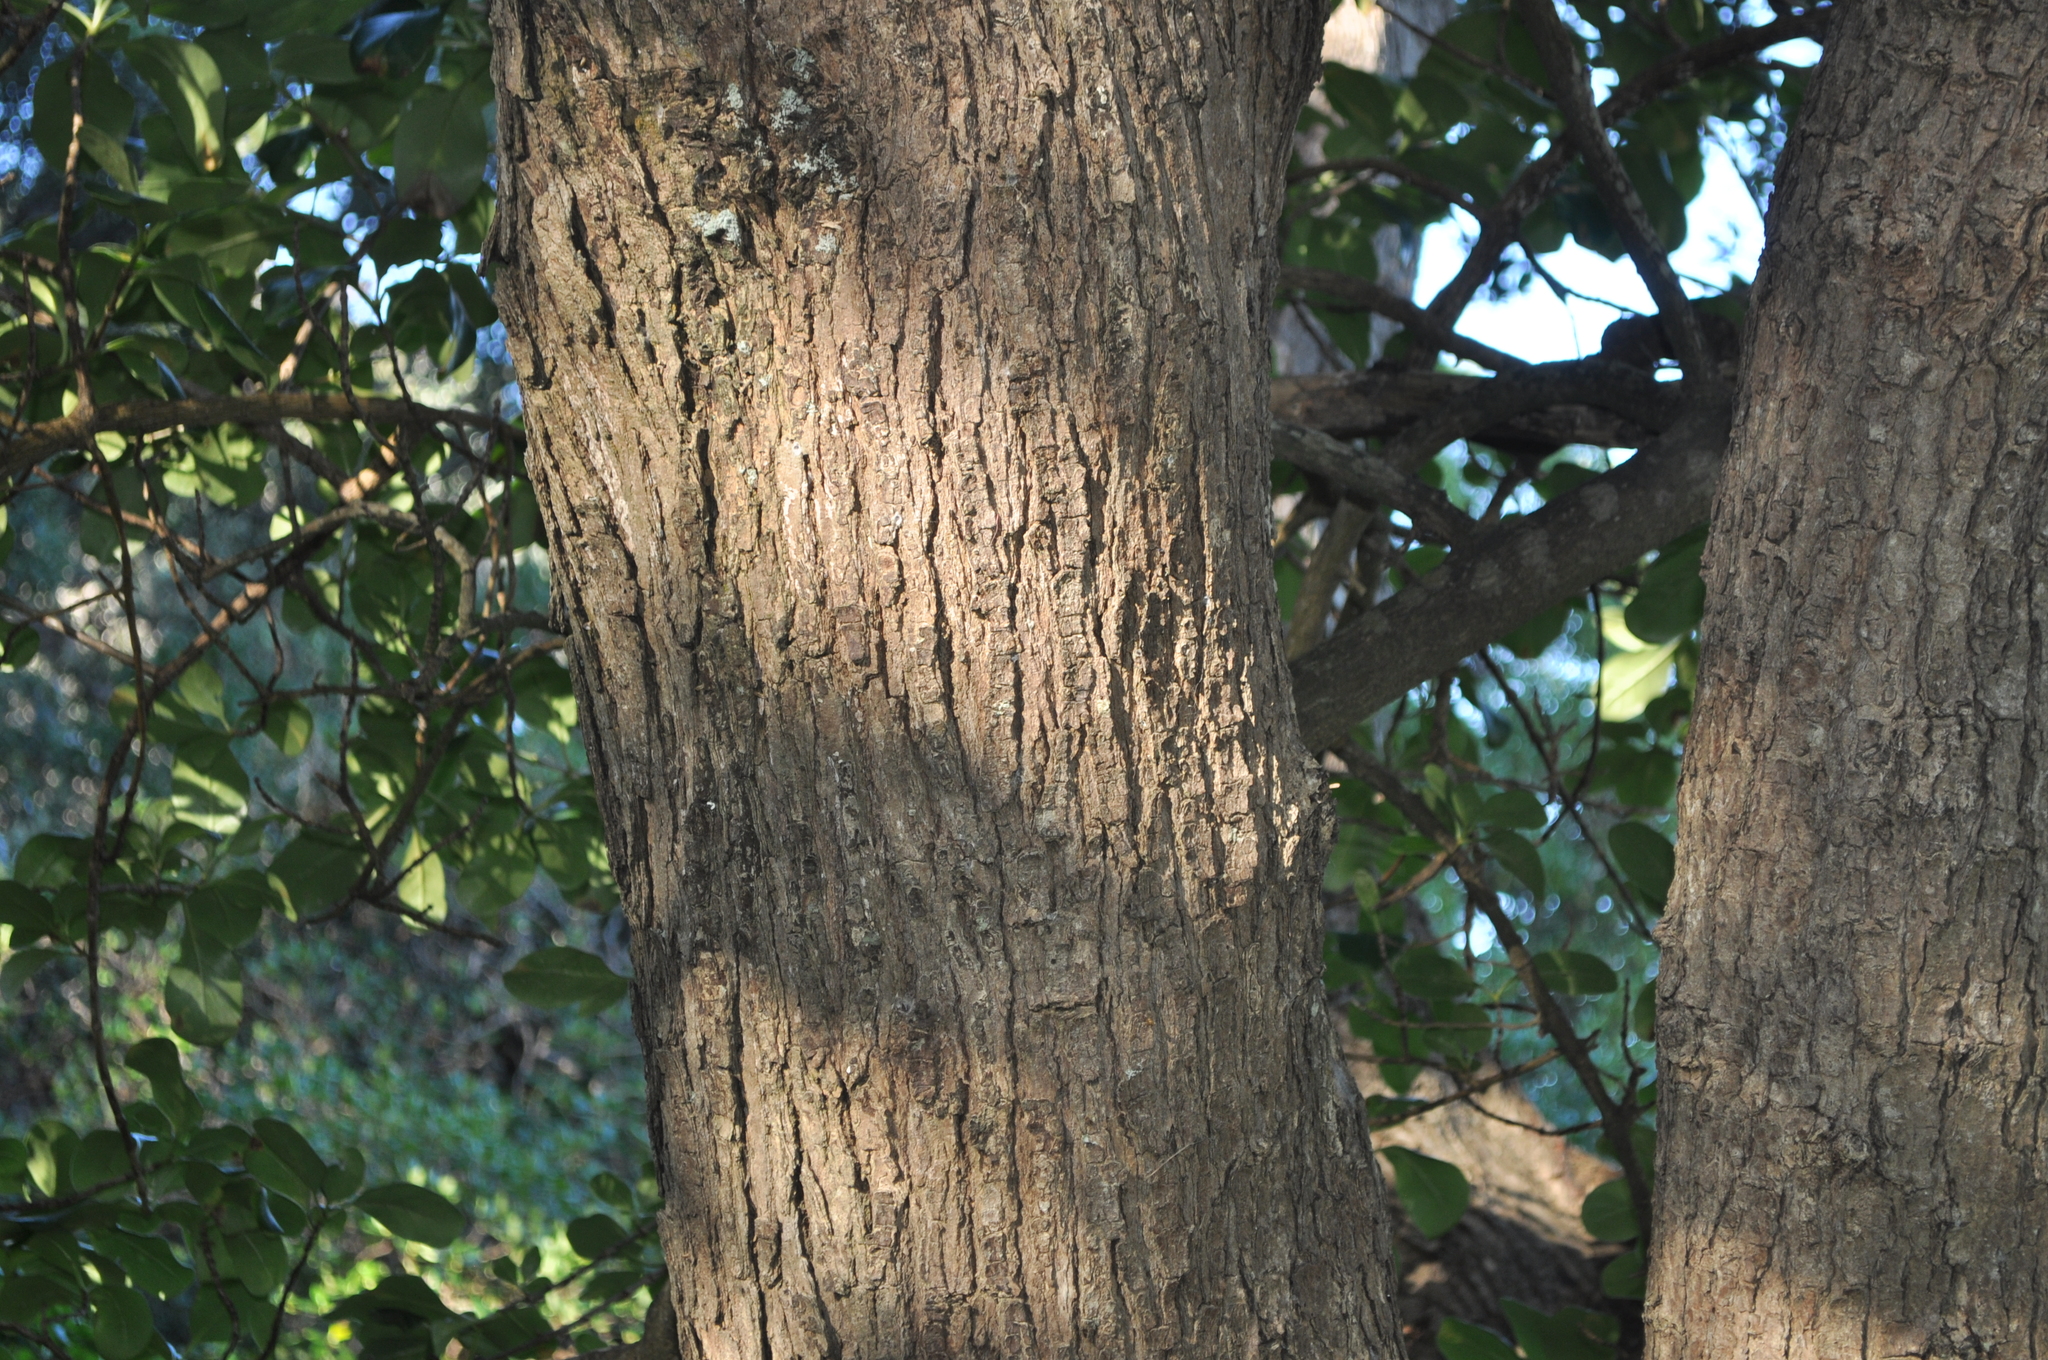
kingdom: Plantae
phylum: Tracheophyta
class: Magnoliopsida
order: Myrtales
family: Myrtaceae
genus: Metrosideros
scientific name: Metrosideros excelsa
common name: New zealand christmastree
